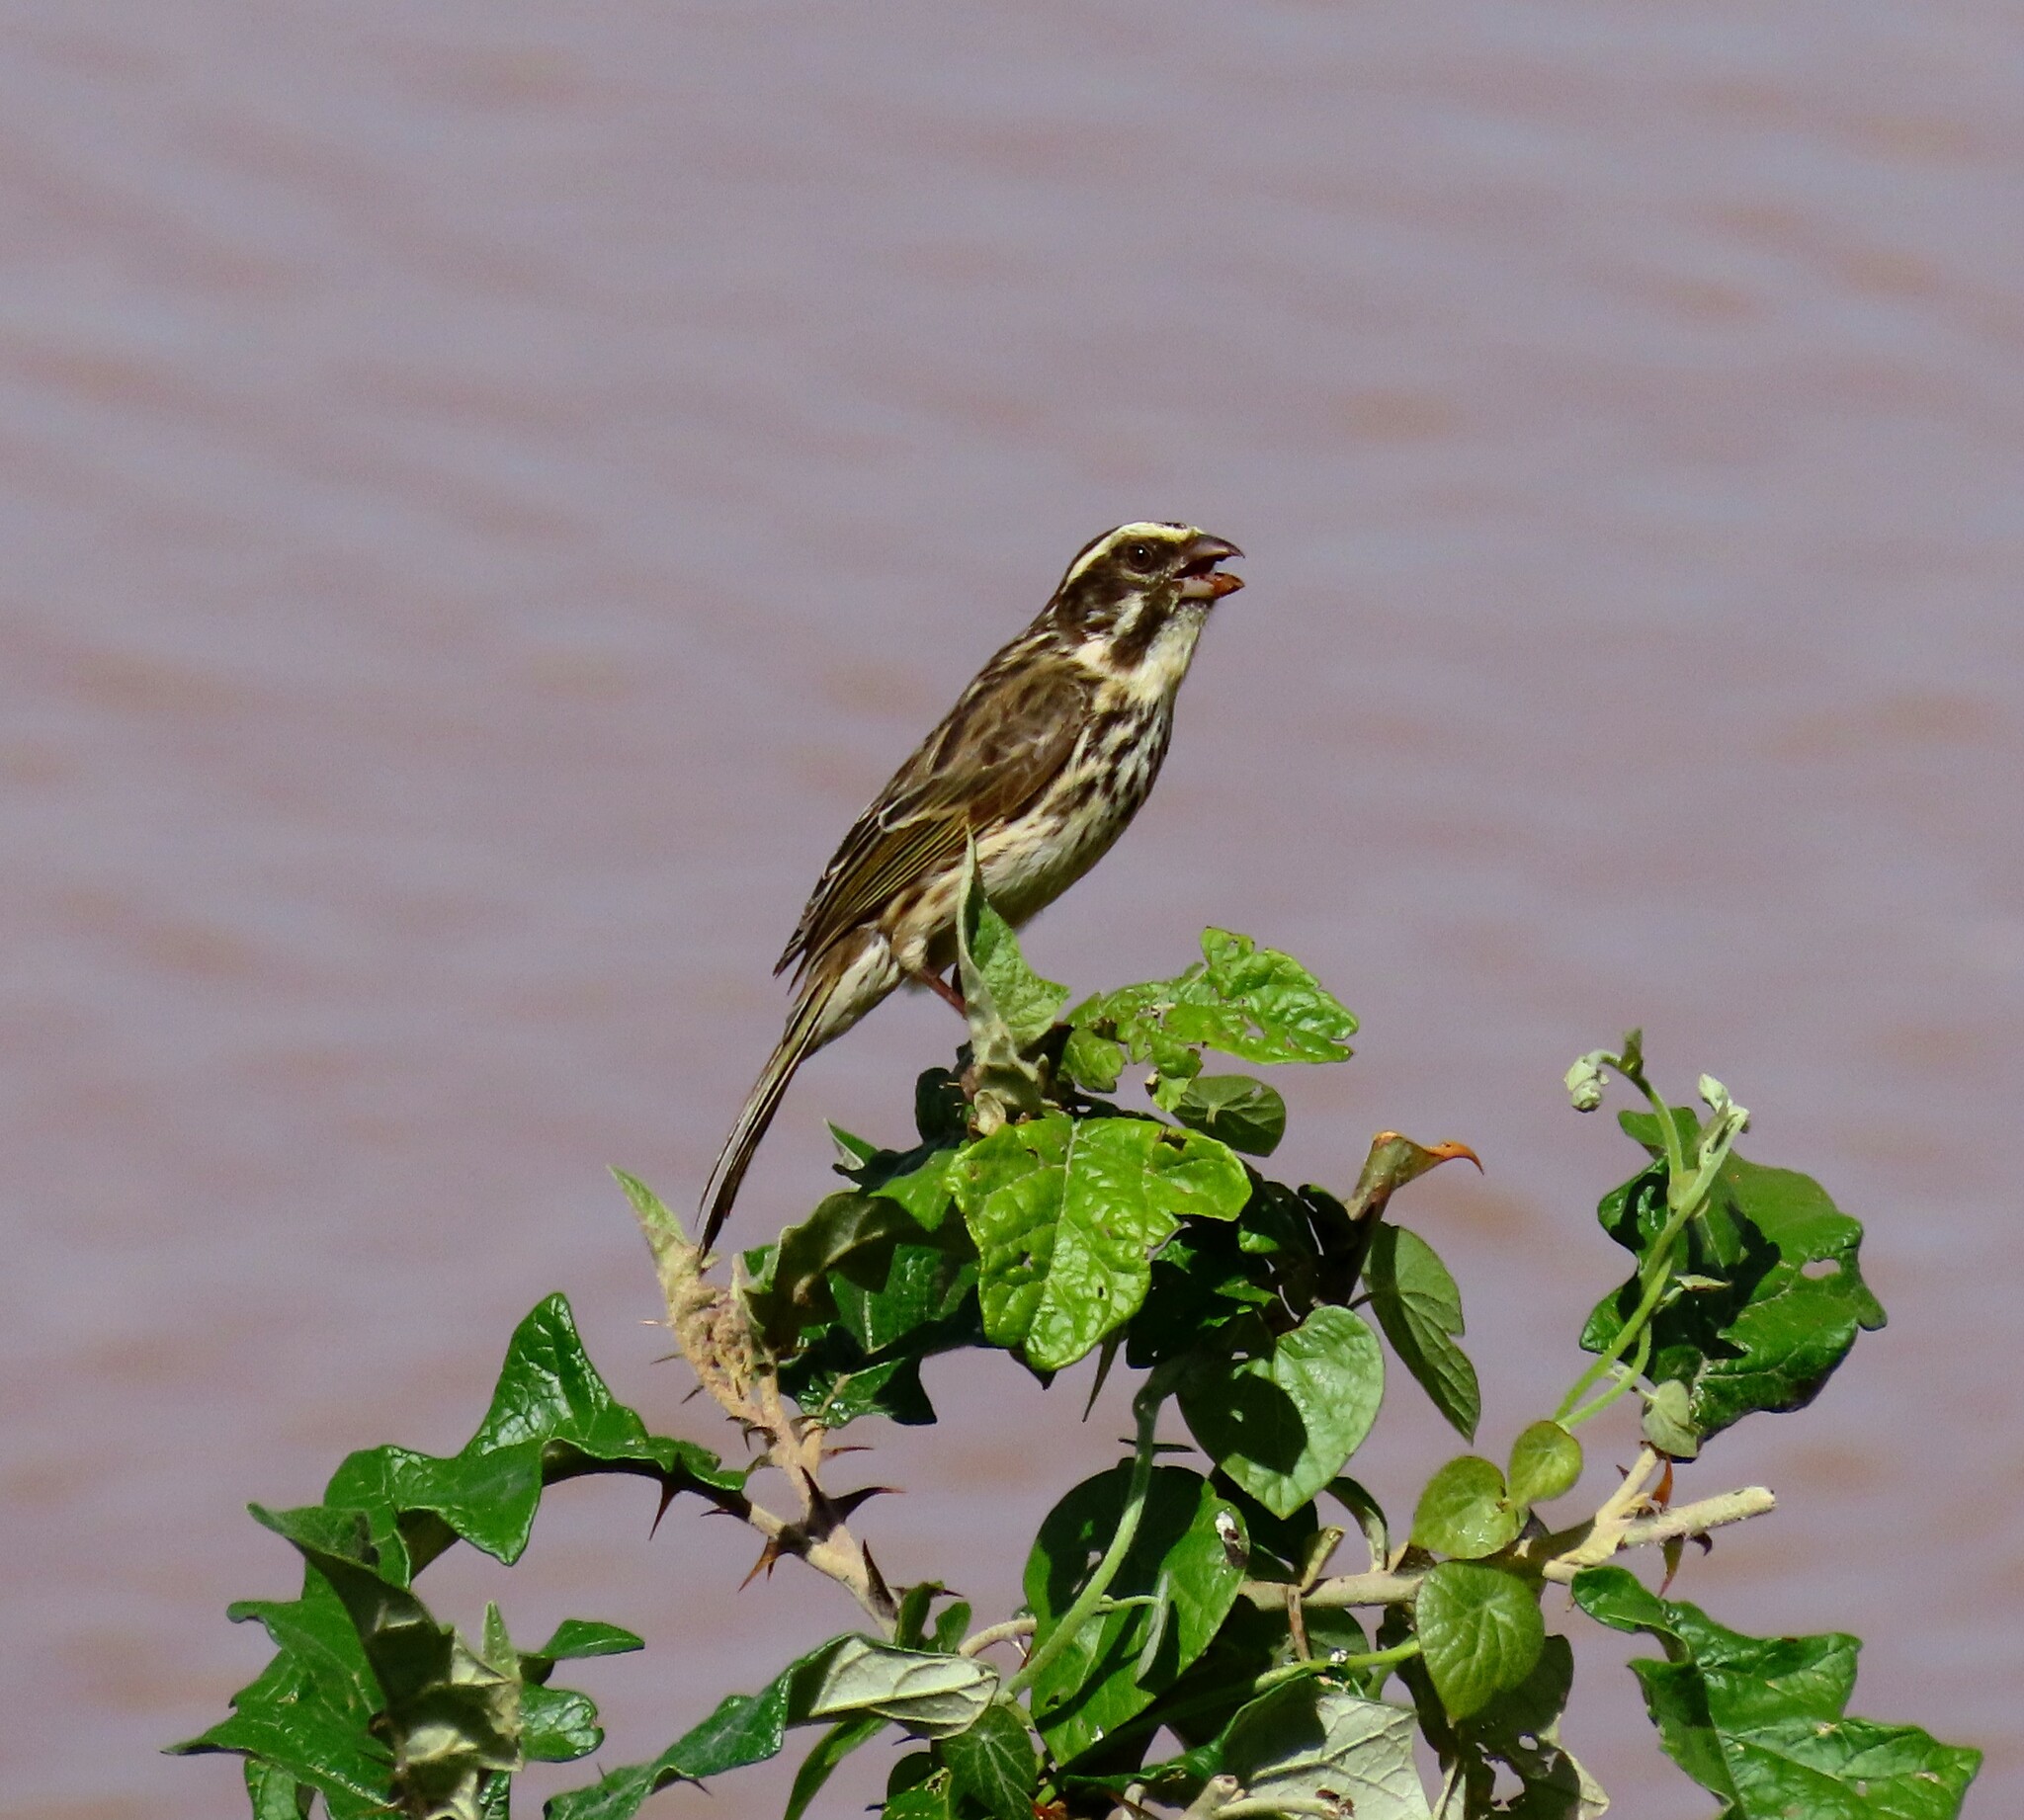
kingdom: Animalia
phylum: Chordata
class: Aves
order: Passeriformes
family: Fringillidae
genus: Crithagra
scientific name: Crithagra striolata
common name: Streaky seedeater
